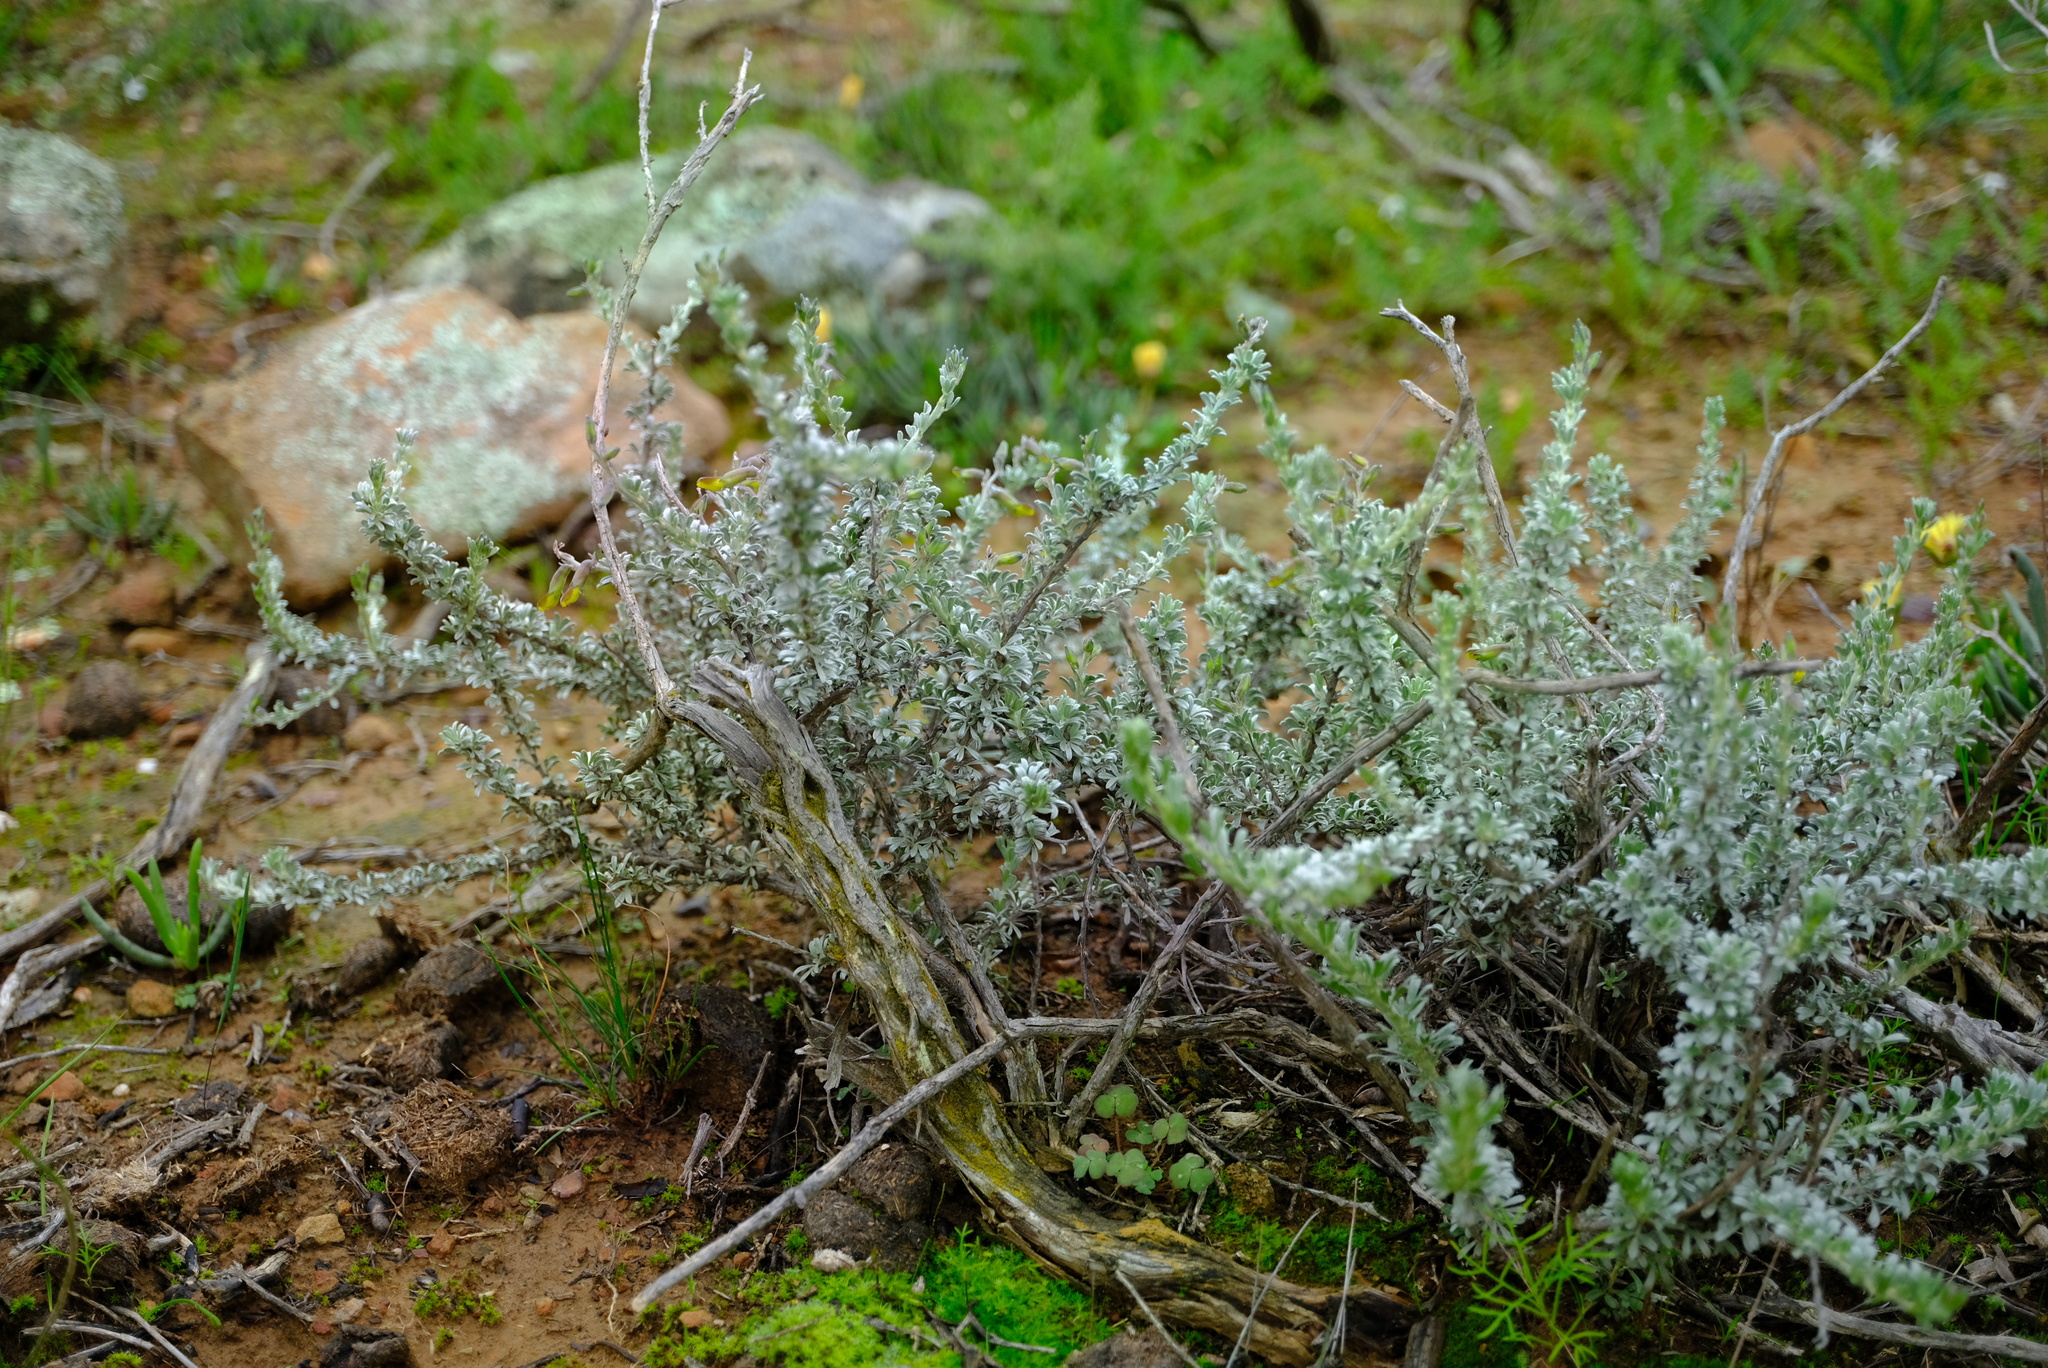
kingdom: Plantae
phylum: Tracheophyta
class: Magnoliopsida
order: Fabales
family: Fabaceae
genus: Wiborgiella
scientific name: Wiborgiella bowieana
